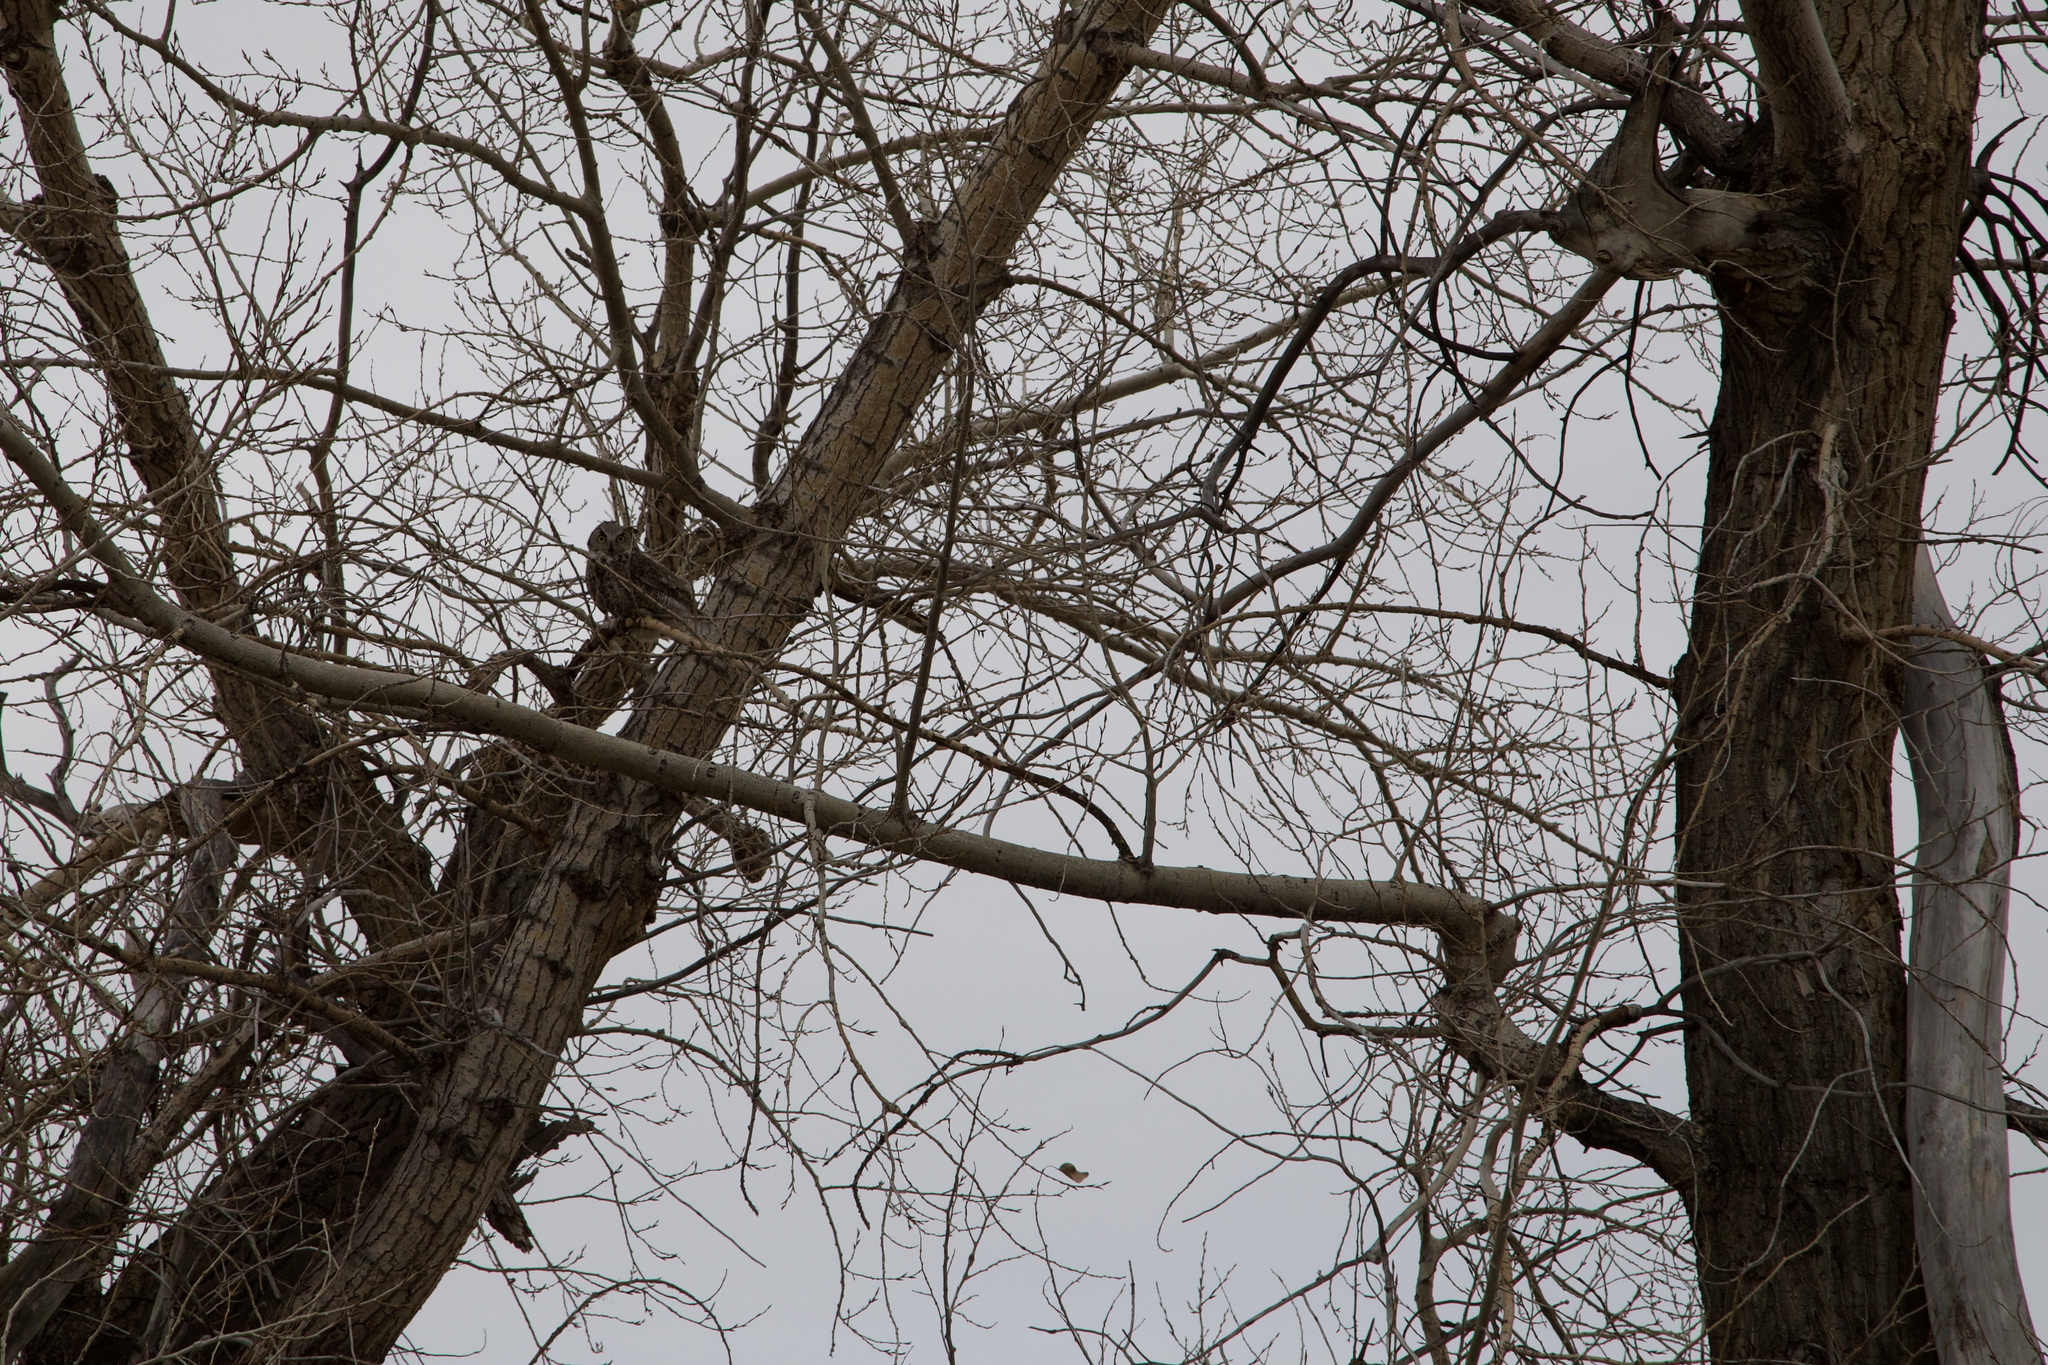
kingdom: Animalia
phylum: Chordata
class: Aves
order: Strigiformes
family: Strigidae
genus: Bubo
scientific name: Bubo virginianus
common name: Great horned owl
